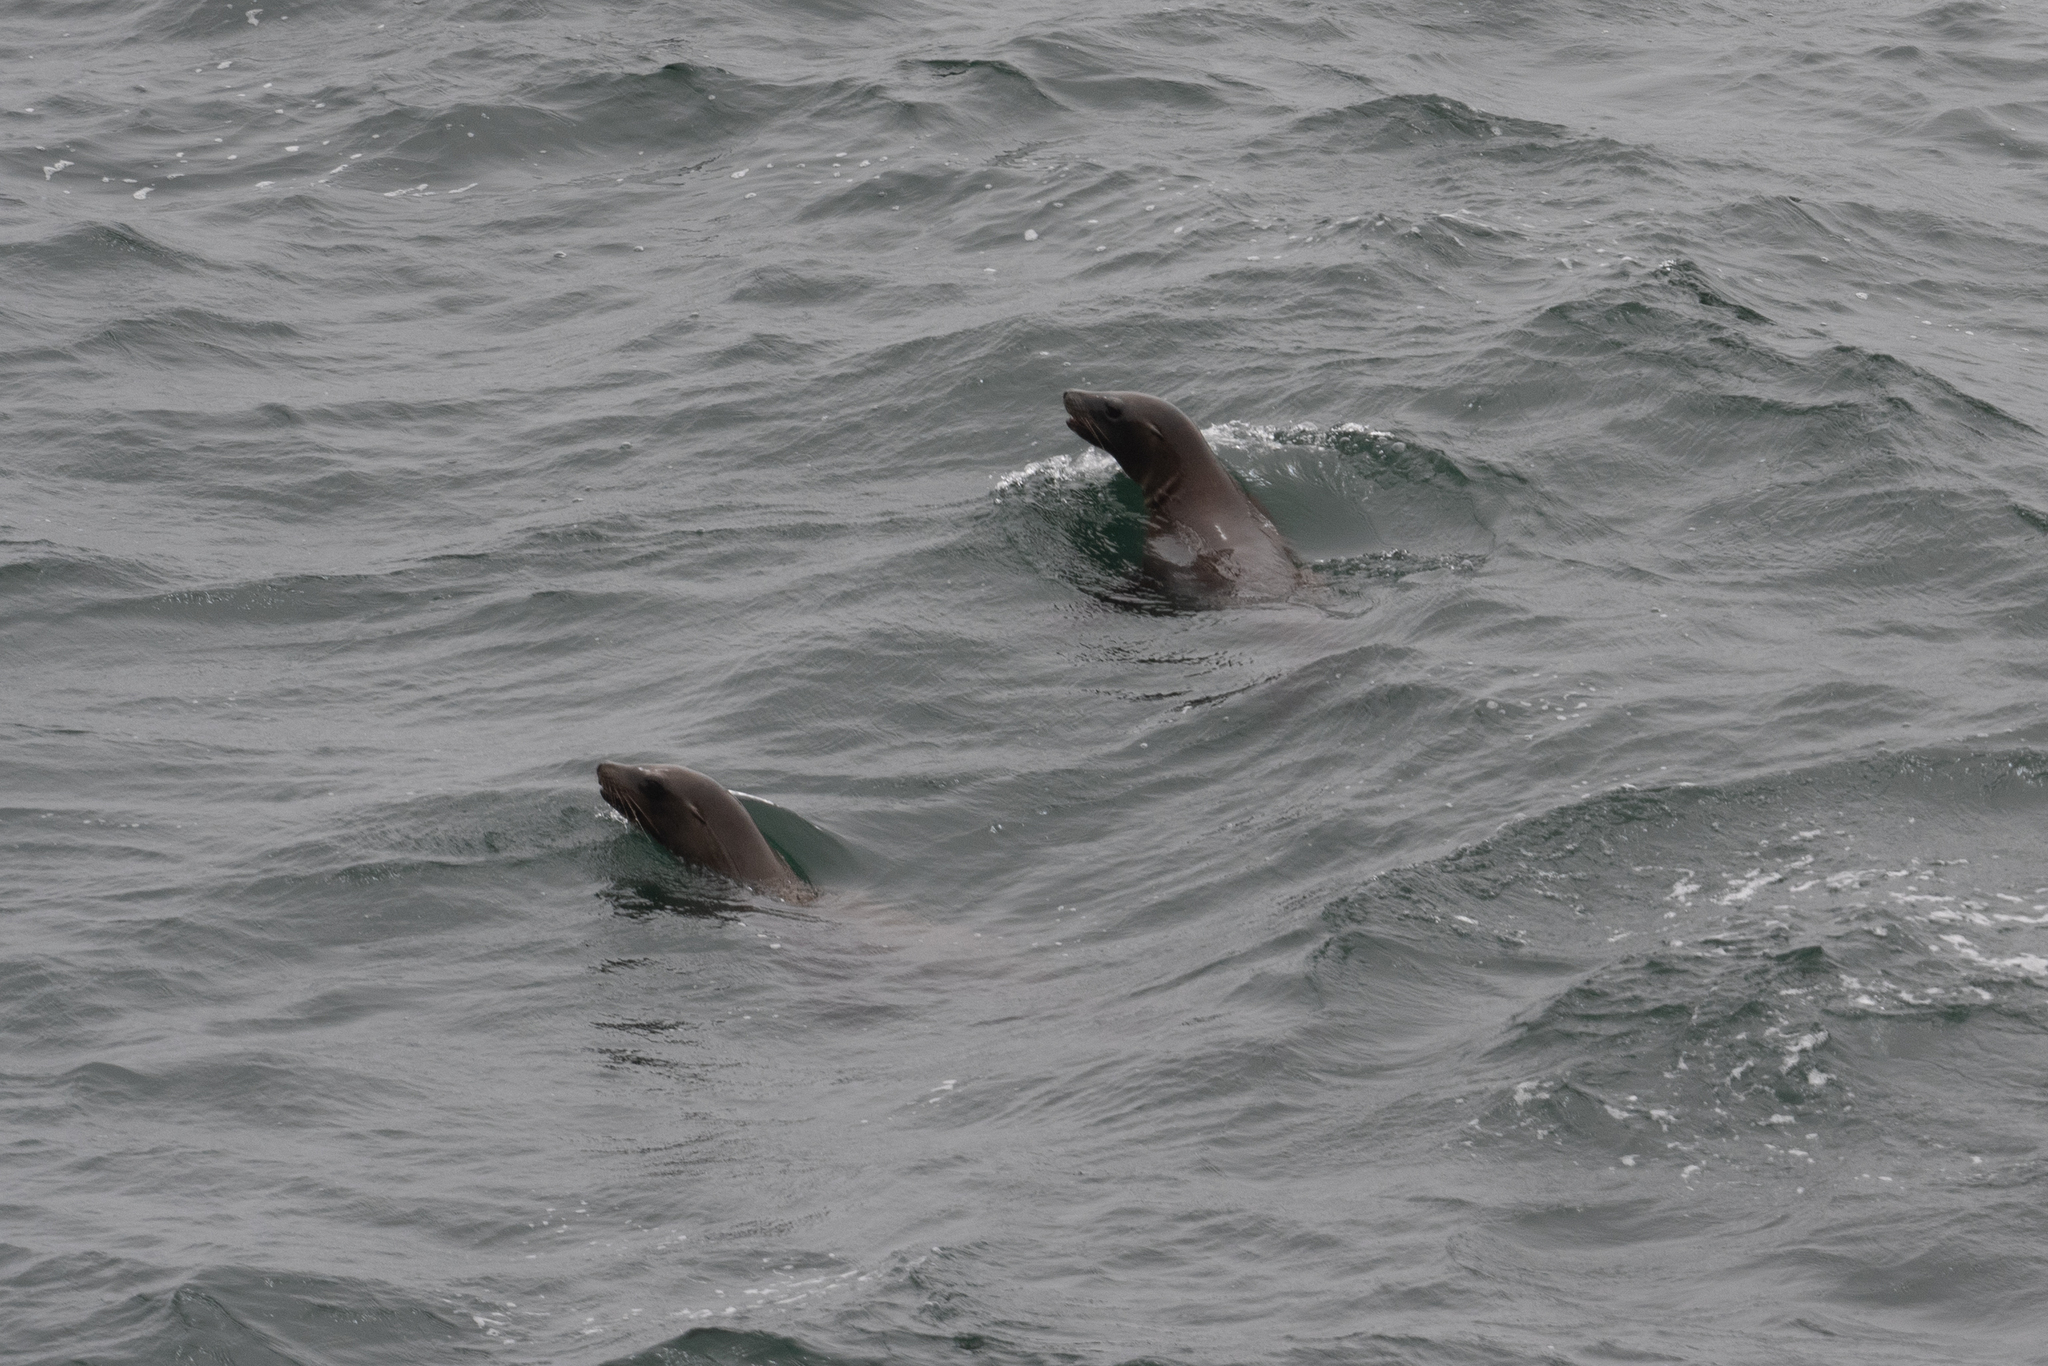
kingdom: Animalia
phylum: Chordata
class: Mammalia
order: Carnivora
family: Otariidae
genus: Zalophus
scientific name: Zalophus californianus
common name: California sea lion
